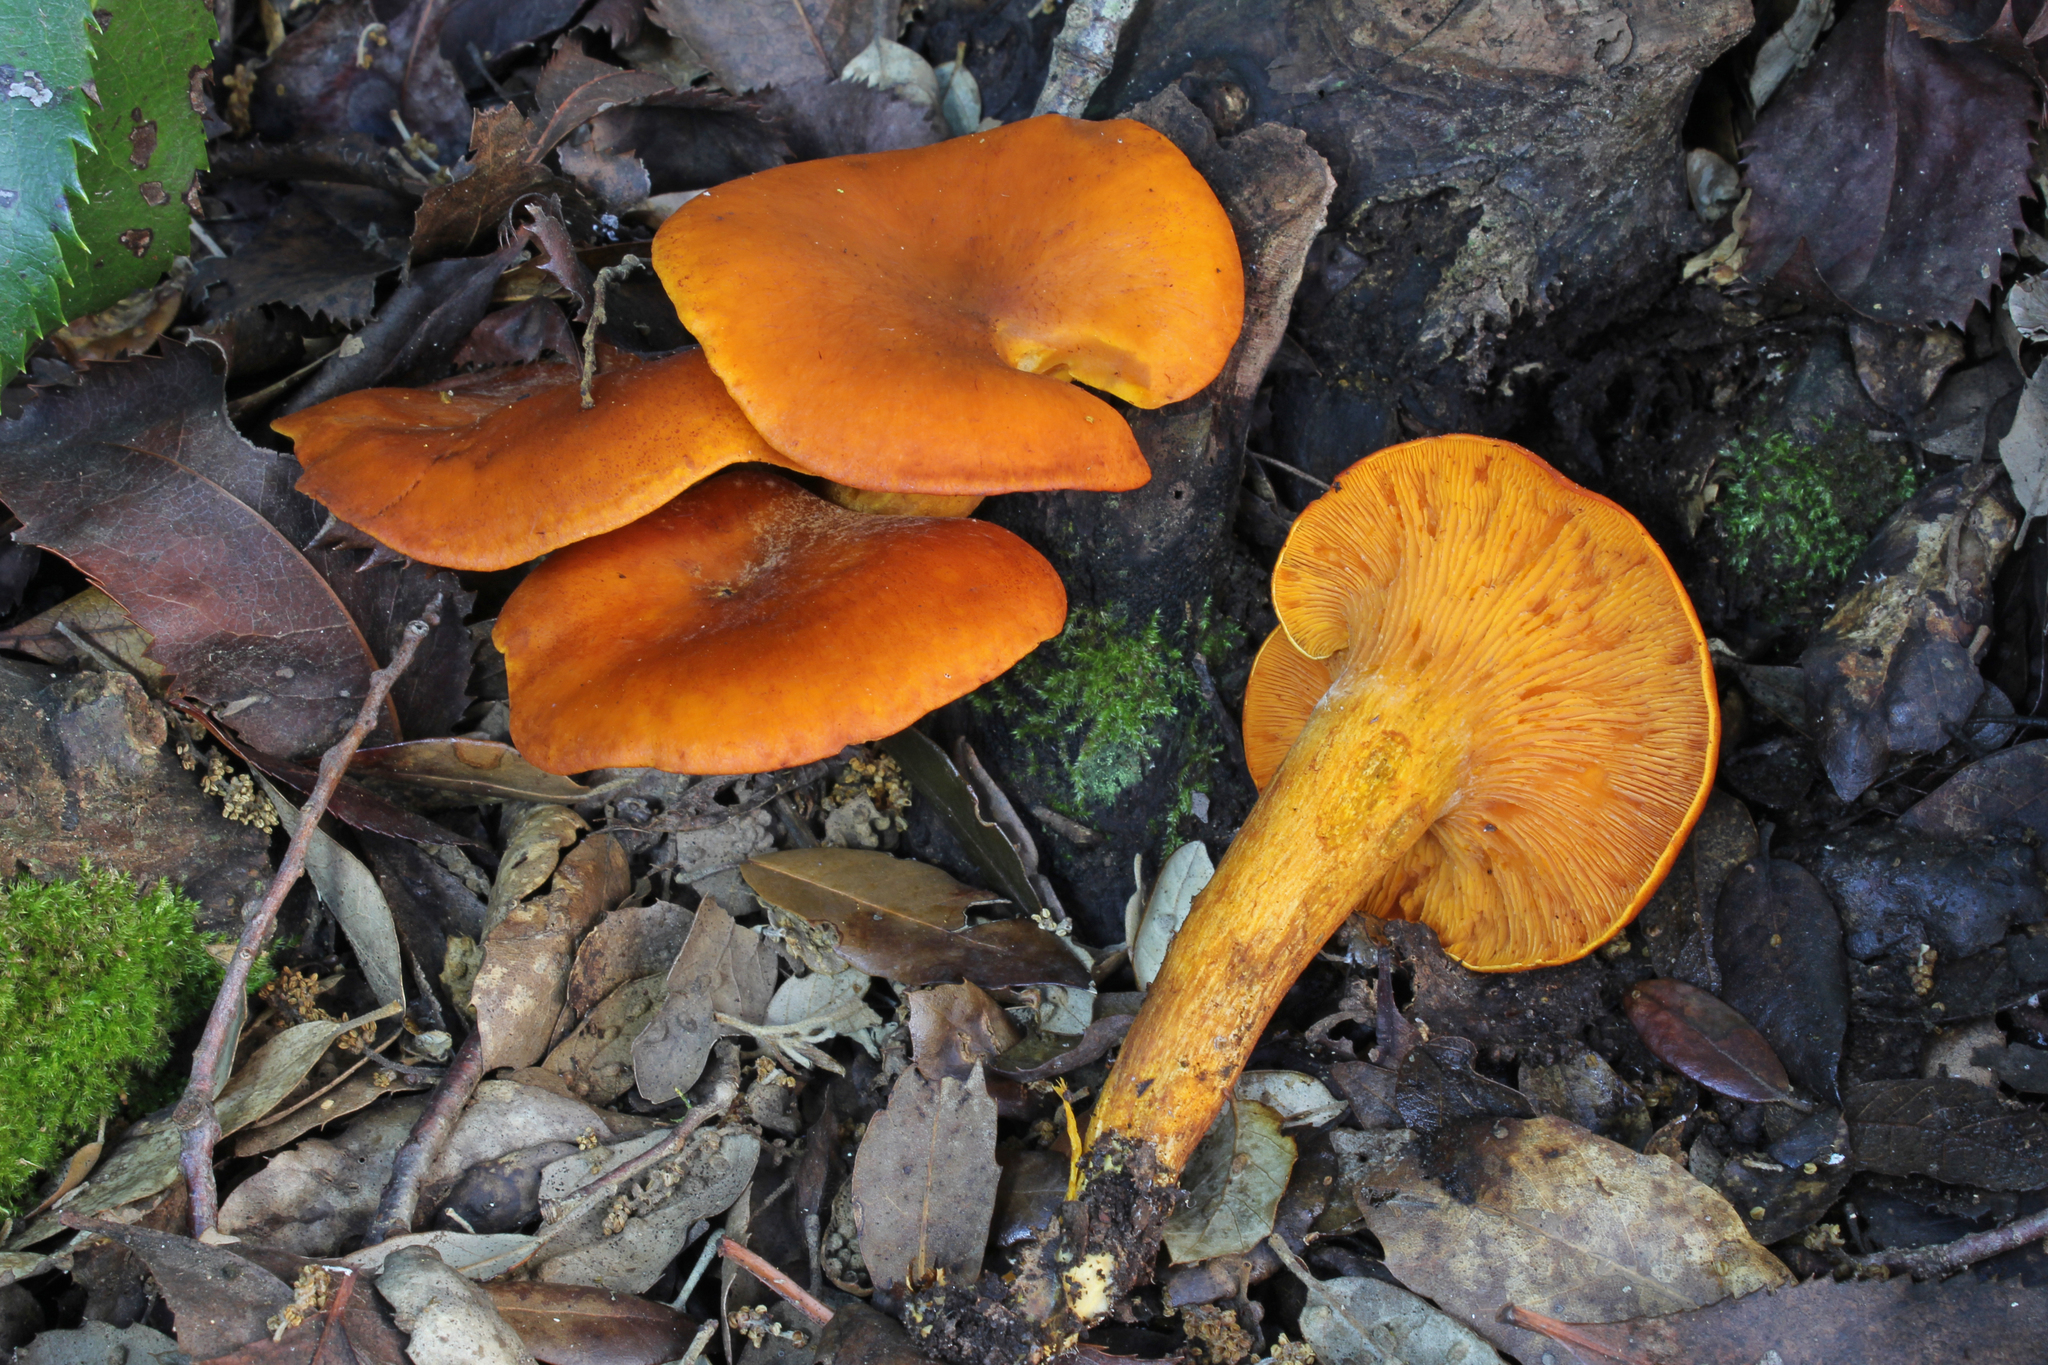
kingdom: Fungi
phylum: Basidiomycota
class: Agaricomycetes
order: Agaricales
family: Omphalotaceae
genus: Omphalotus
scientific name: Omphalotus olearius
